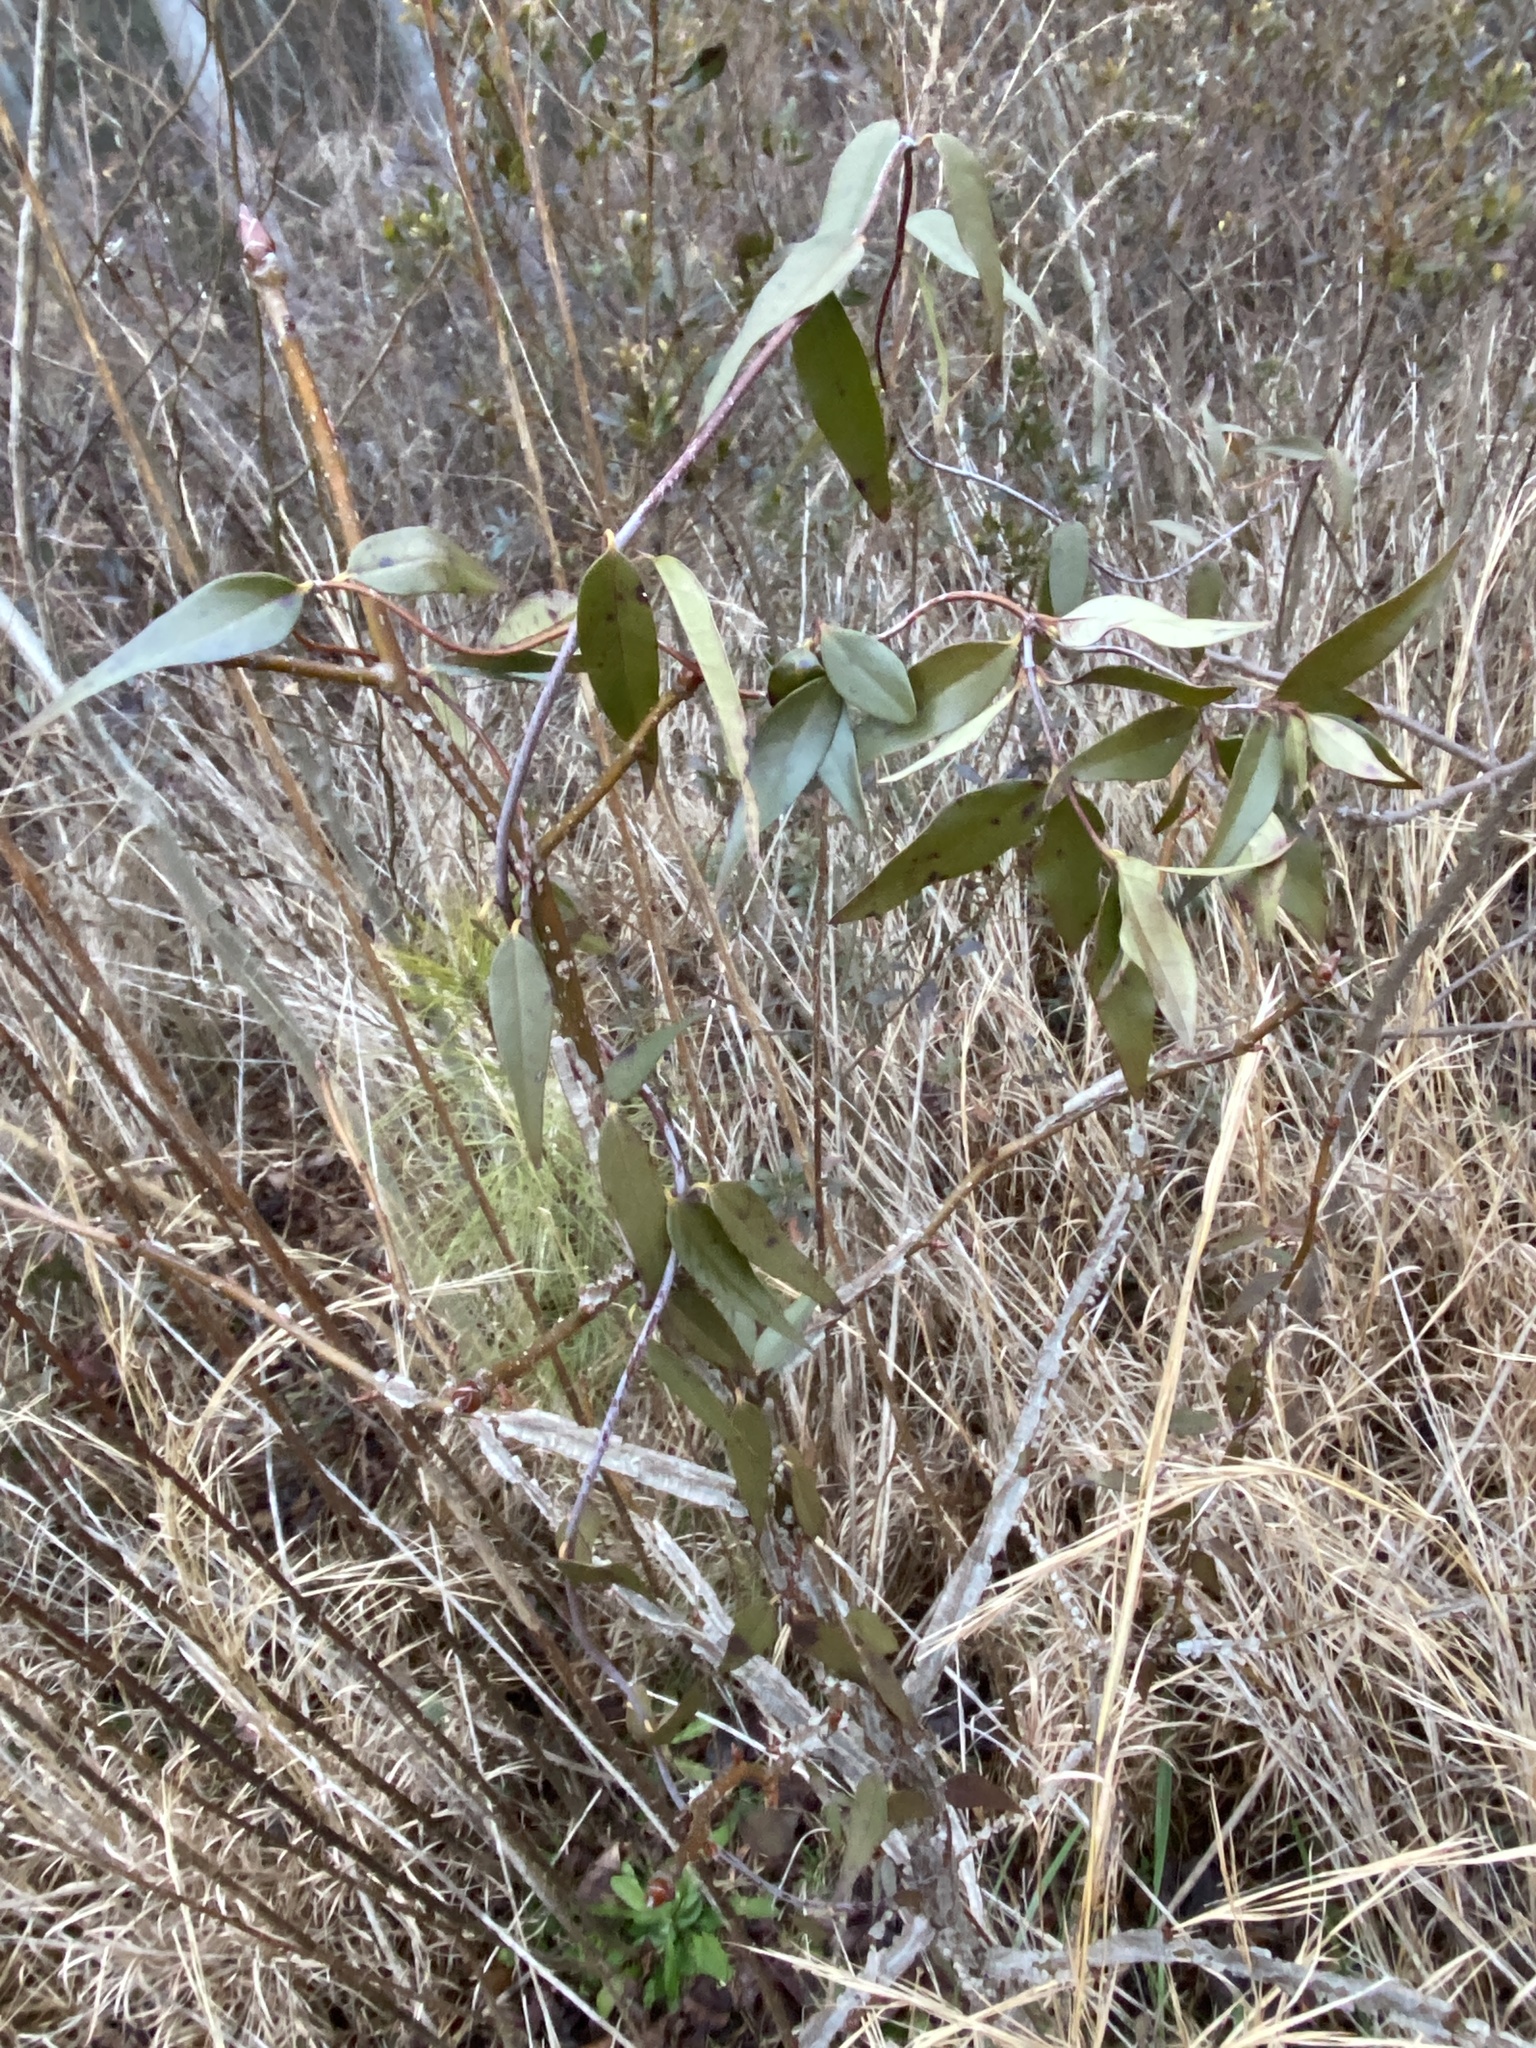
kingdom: Plantae
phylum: Tracheophyta
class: Magnoliopsida
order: Gentianales
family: Gelsemiaceae
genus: Gelsemium
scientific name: Gelsemium sempervirens
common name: Carolina-jasmine
